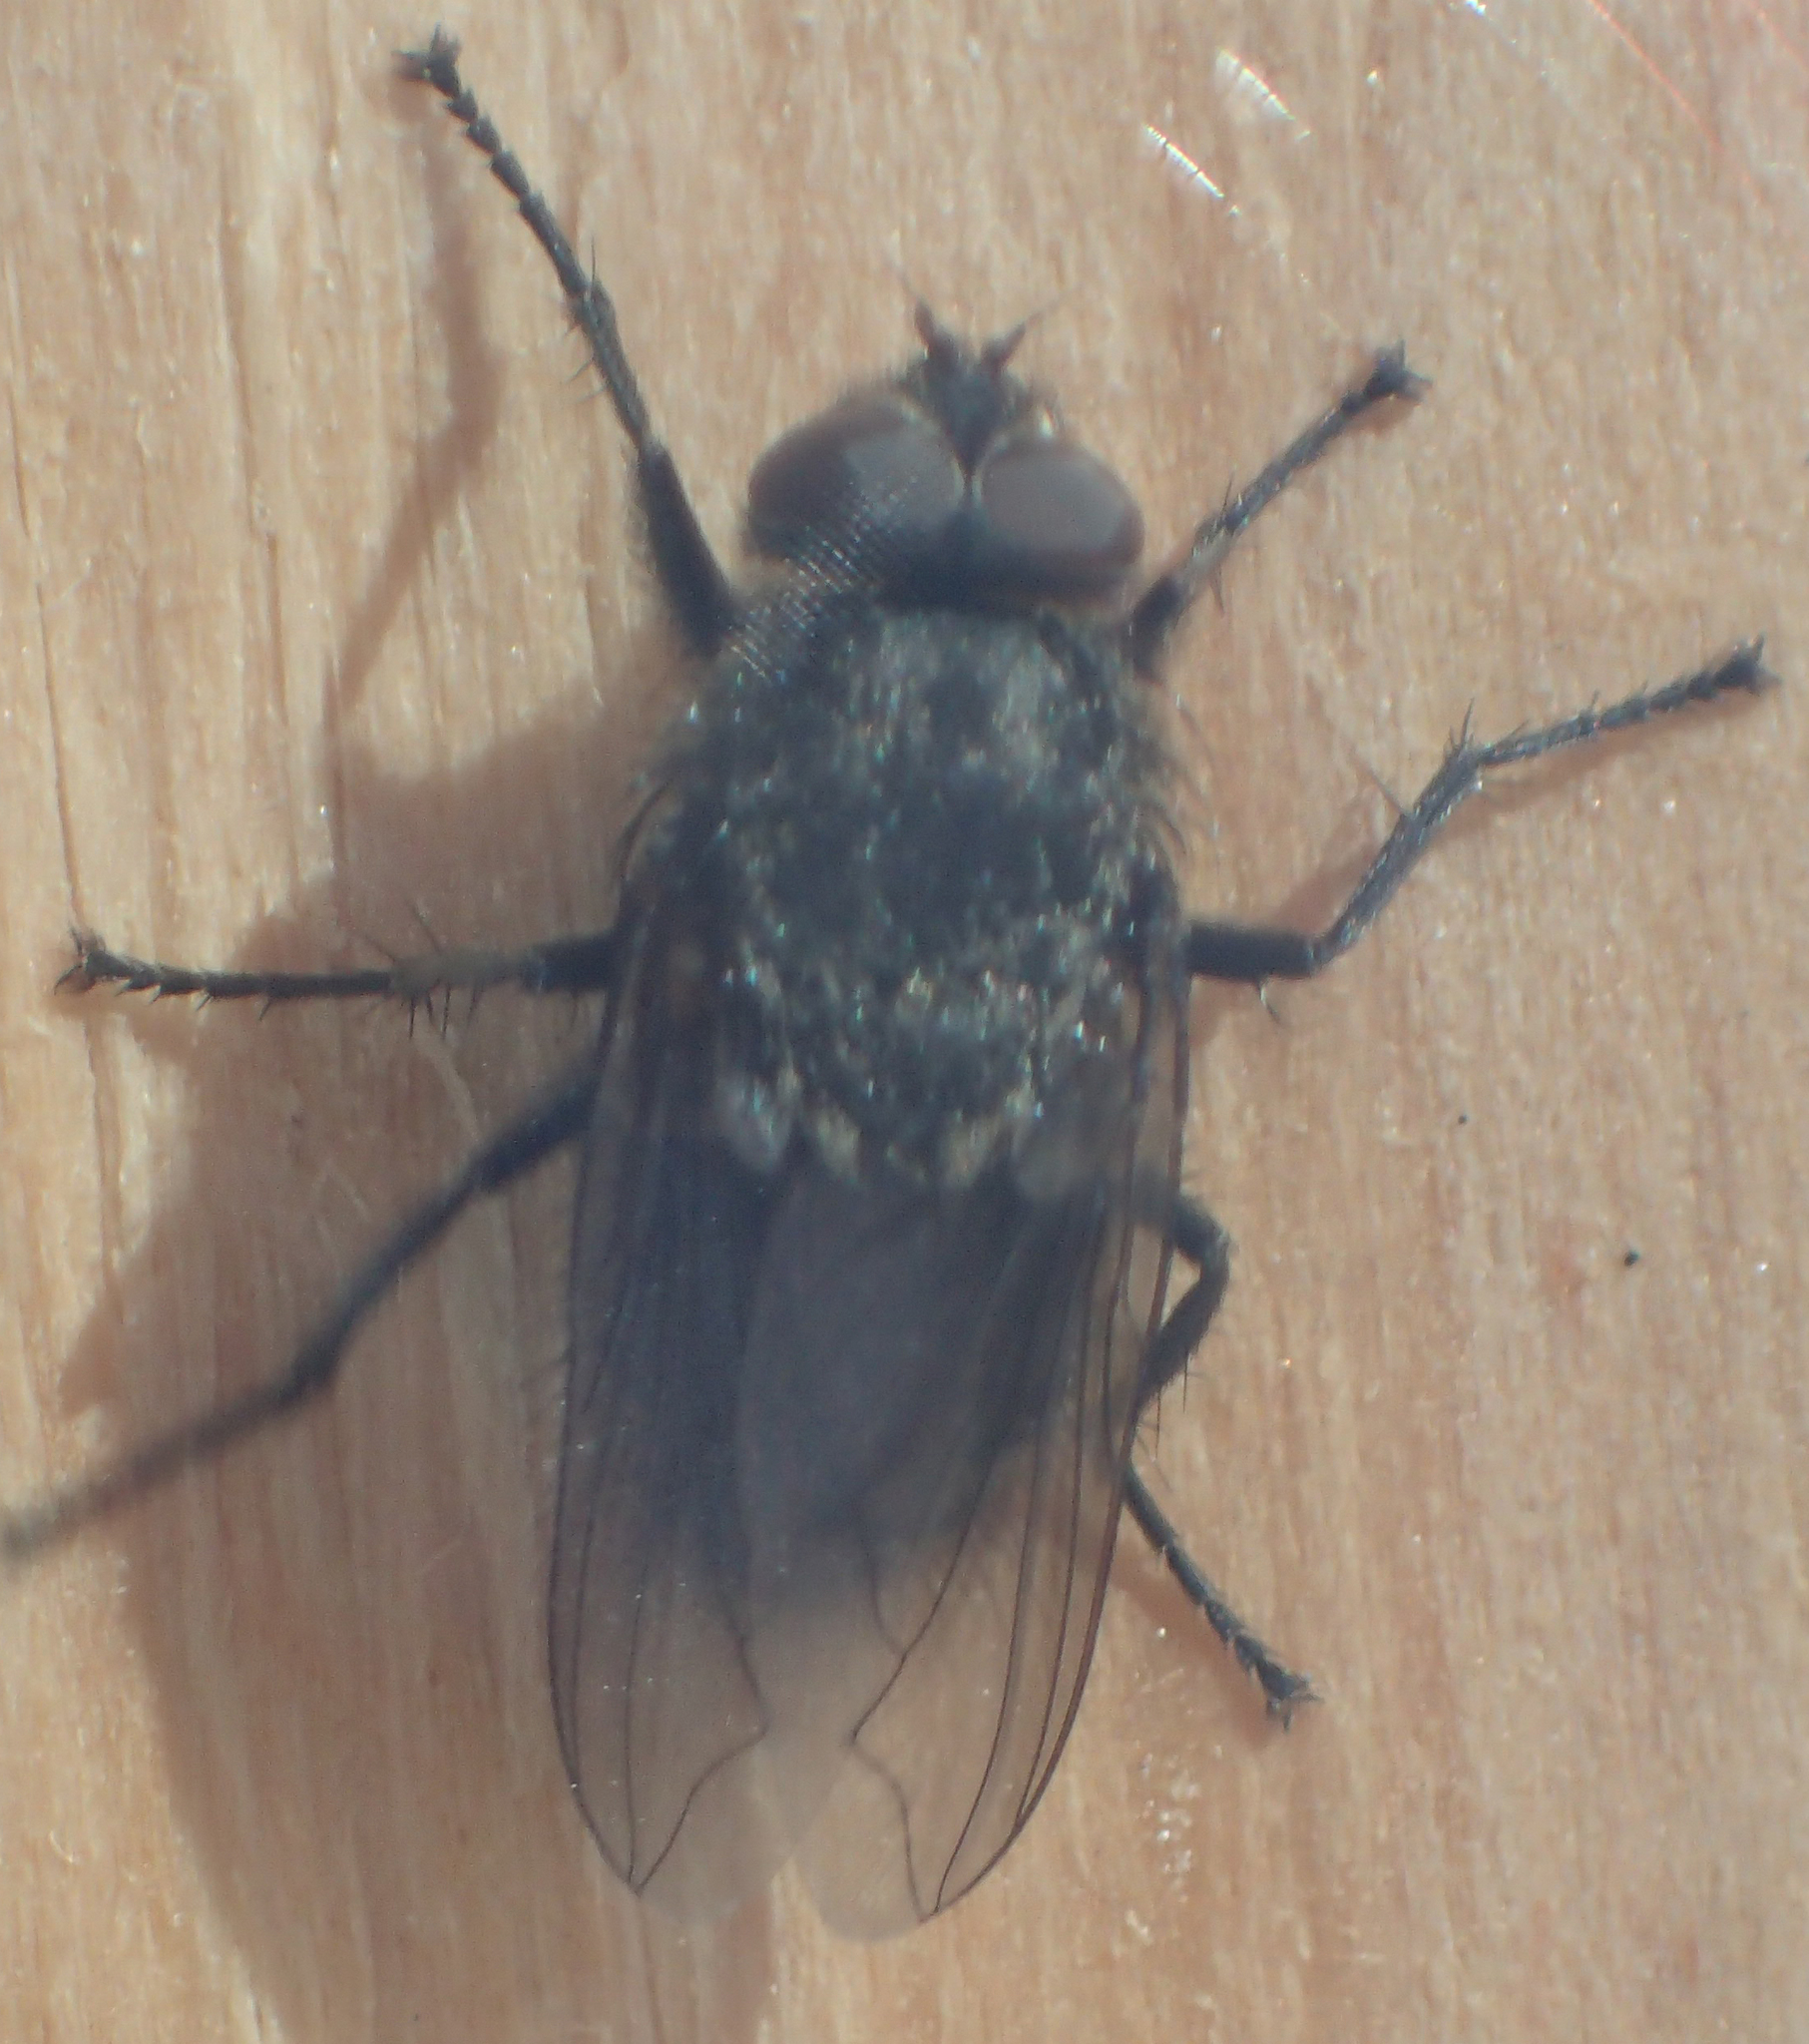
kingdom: Animalia
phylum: Arthropoda
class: Insecta
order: Diptera
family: Polleniidae
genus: Pollenia
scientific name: Pollenia
